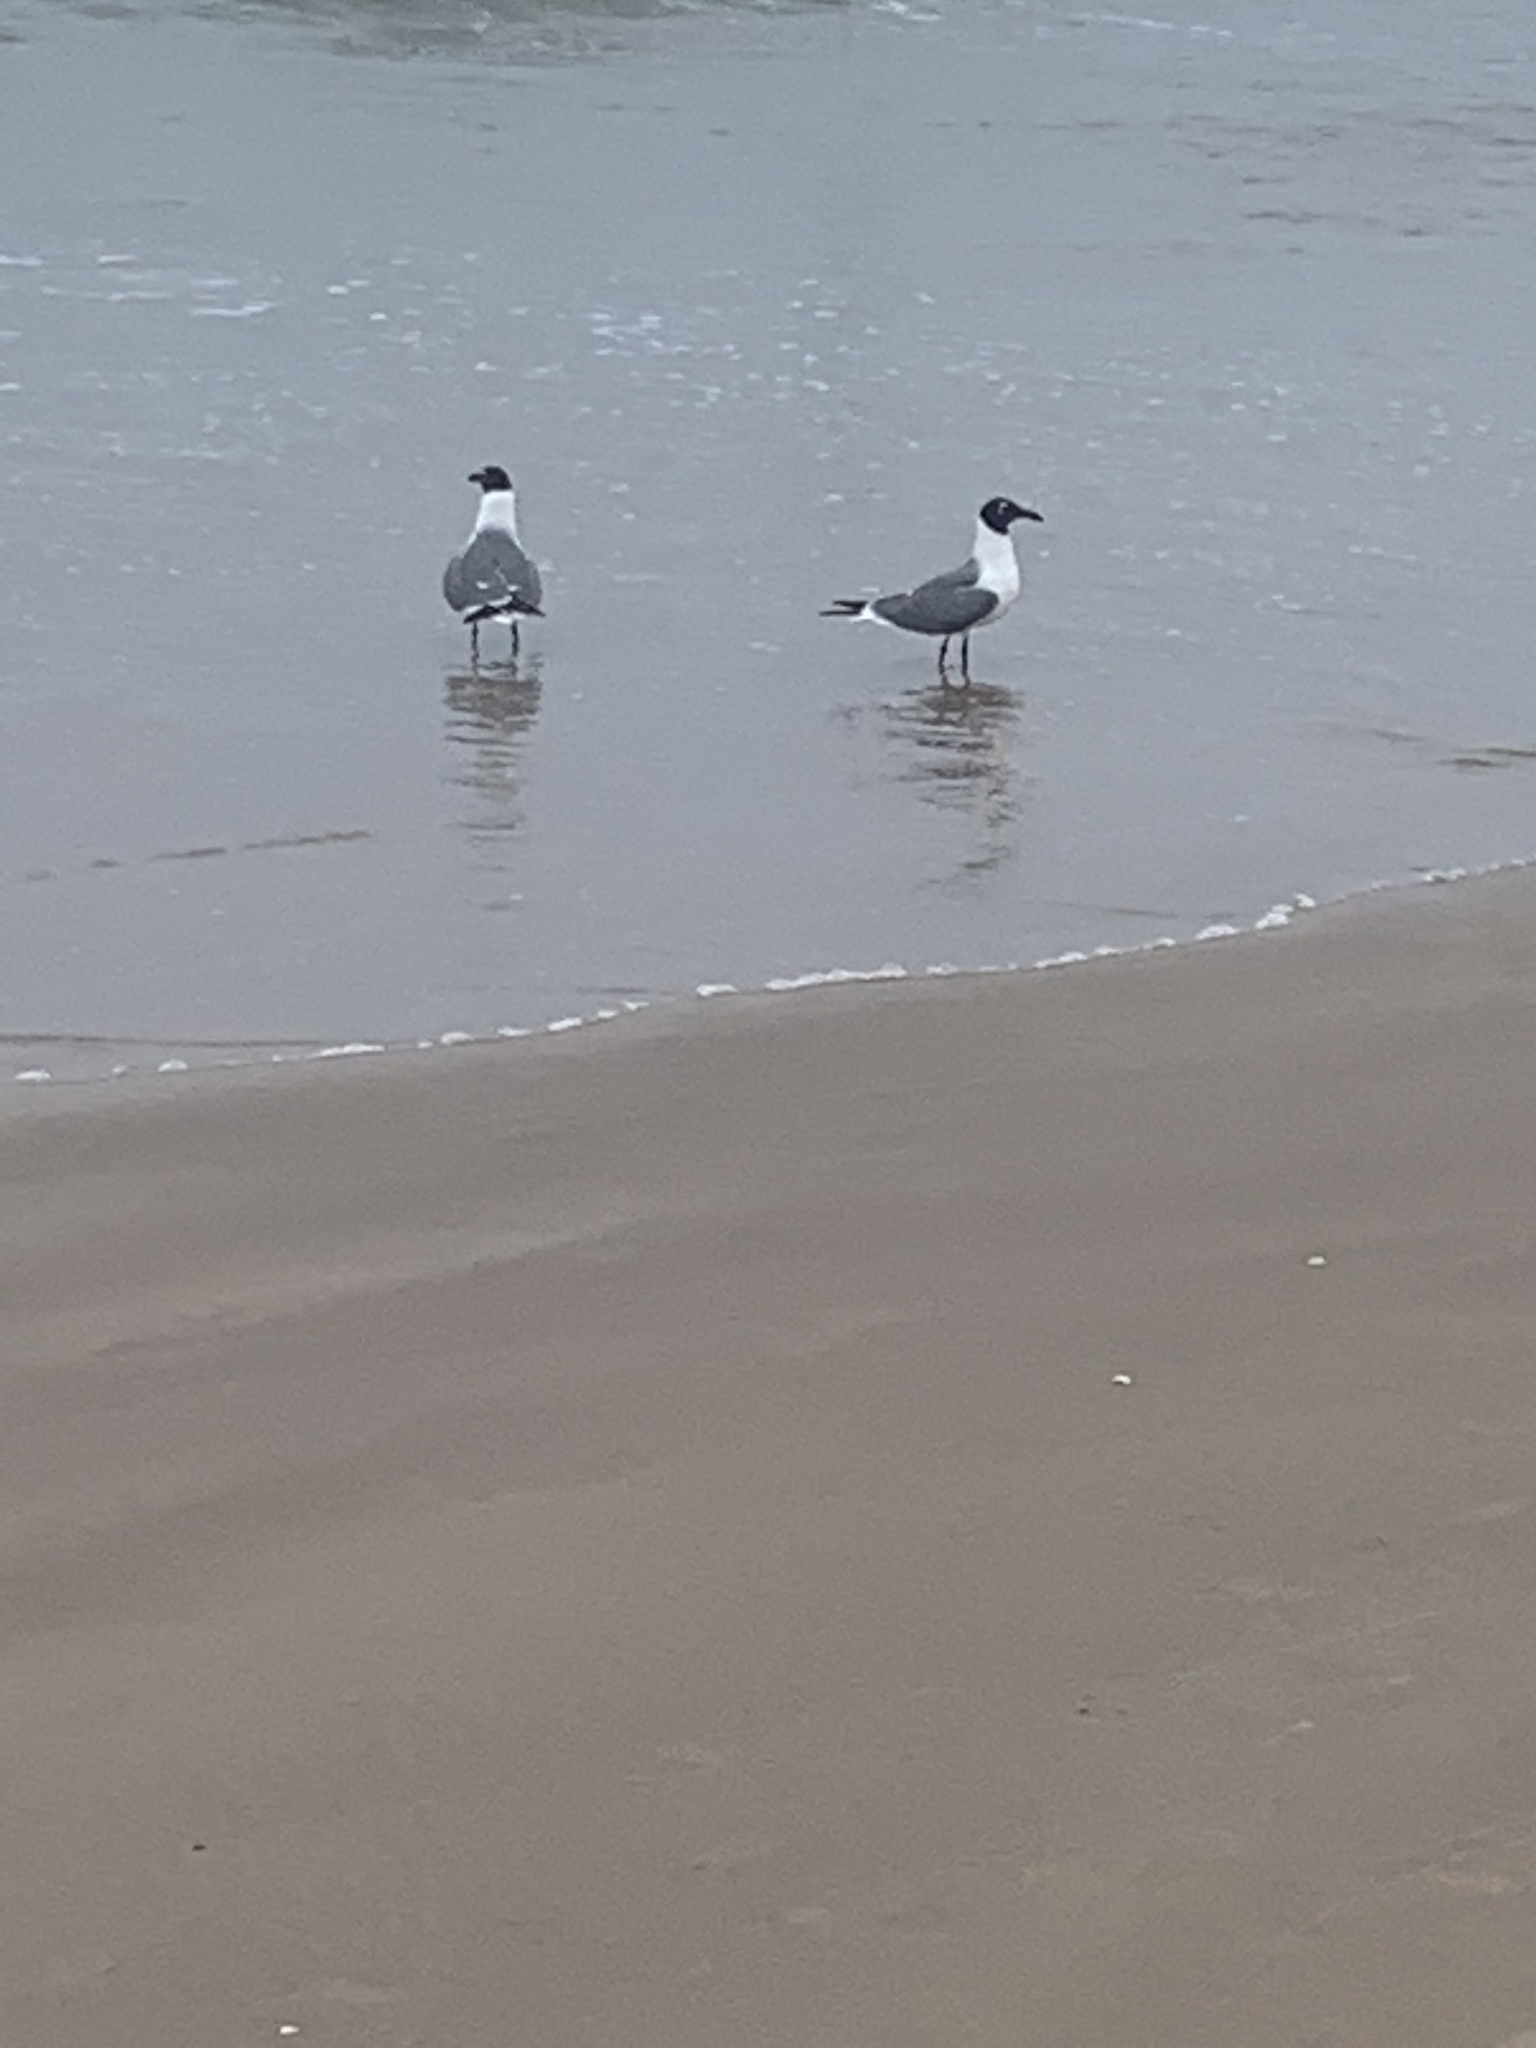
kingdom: Animalia
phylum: Chordata
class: Aves
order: Charadriiformes
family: Laridae
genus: Leucophaeus
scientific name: Leucophaeus atricilla
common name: Laughing gull
